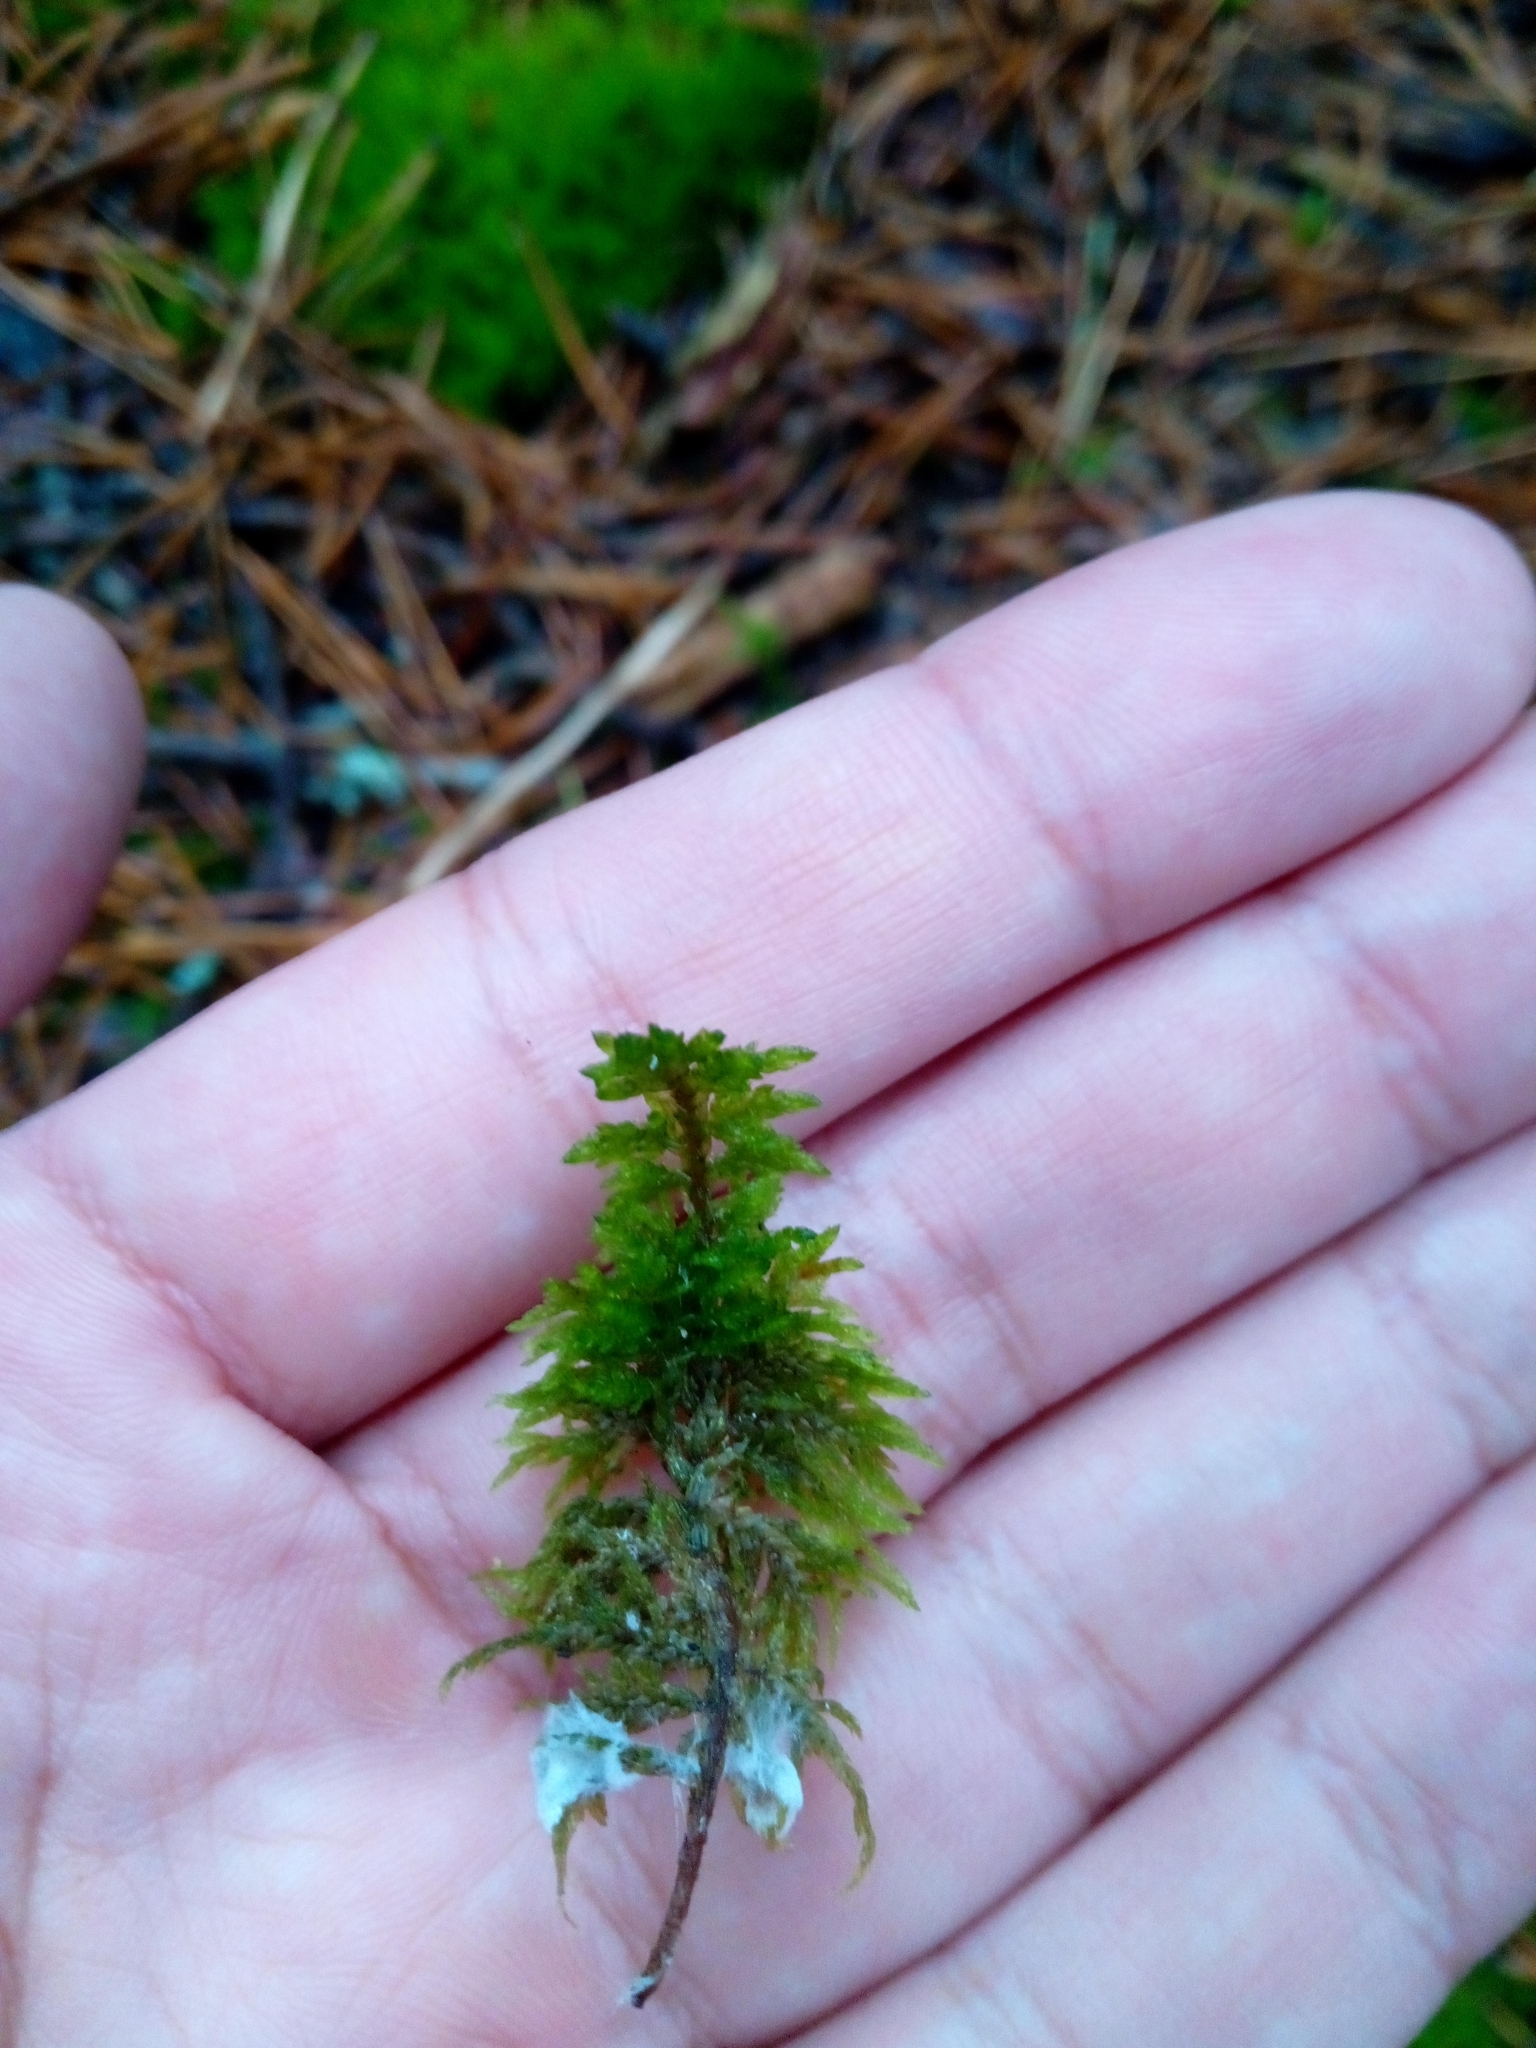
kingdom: Plantae
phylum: Bryophyta
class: Bryopsida
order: Hypnales
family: Hylocomiaceae
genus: Hylocomium
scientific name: Hylocomium splendens
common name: Stairstep moss
